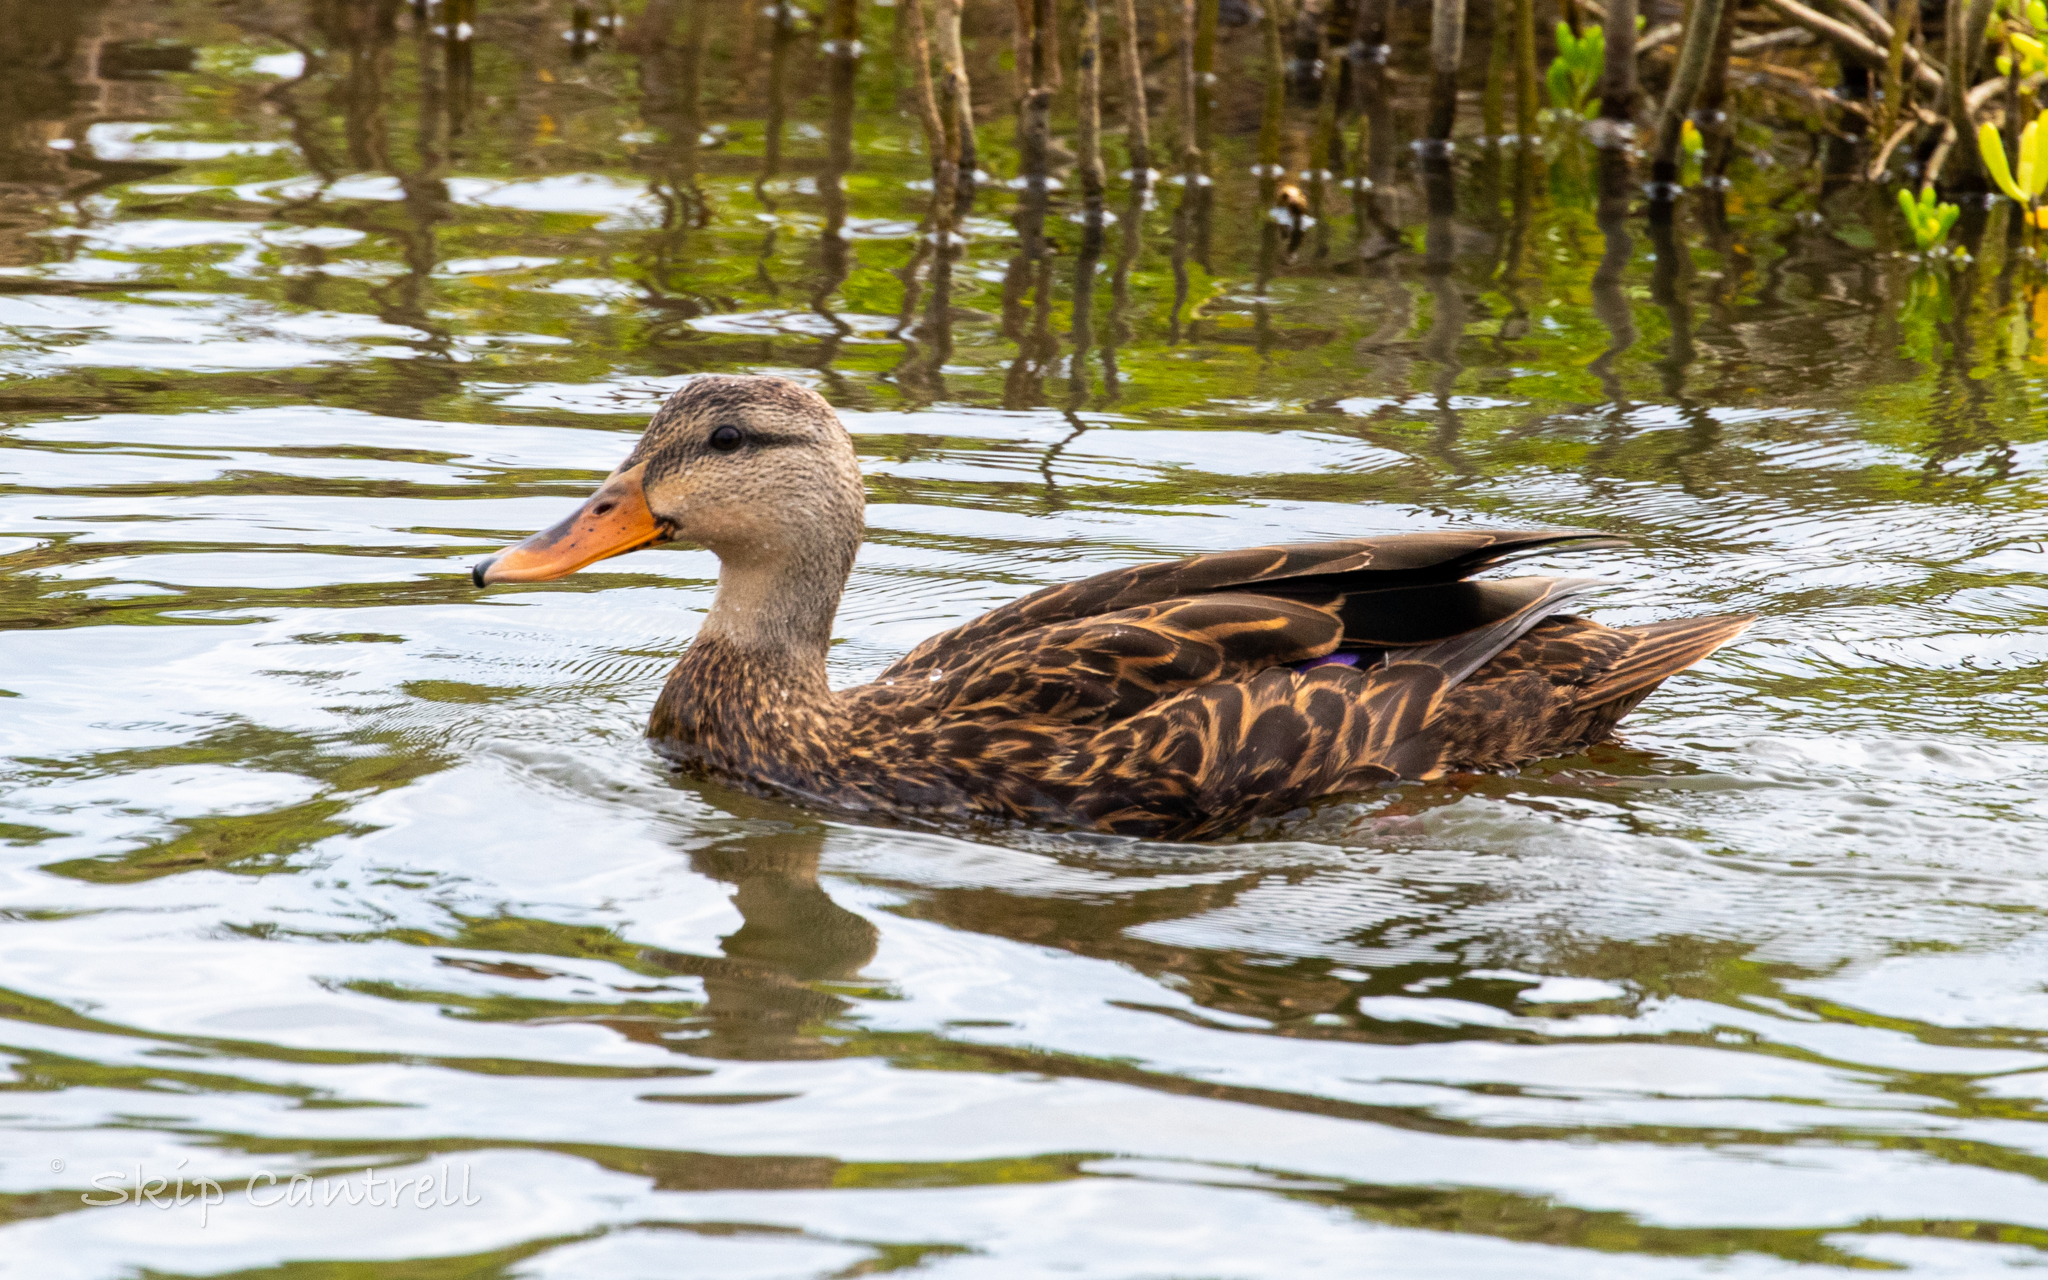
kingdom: Animalia
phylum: Chordata
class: Aves
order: Anseriformes
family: Anatidae
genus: Anas
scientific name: Anas fulvigula
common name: Mottled duck
